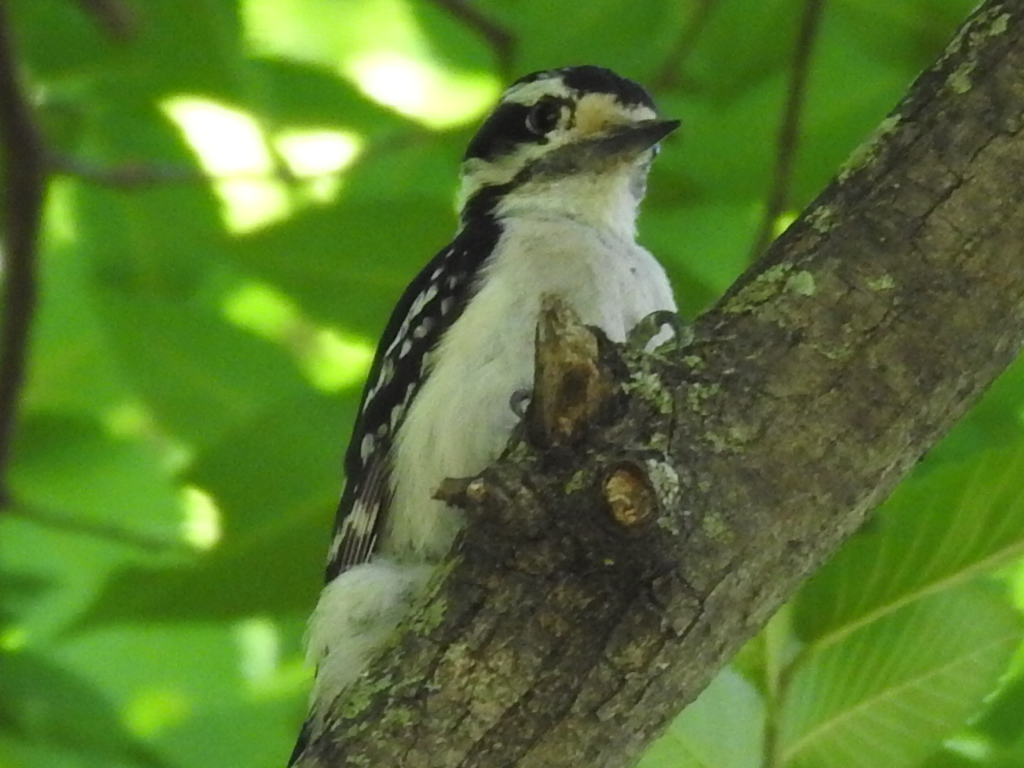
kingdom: Animalia
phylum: Chordata
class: Aves
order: Piciformes
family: Picidae
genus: Dryobates
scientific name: Dryobates pubescens
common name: Downy woodpecker
